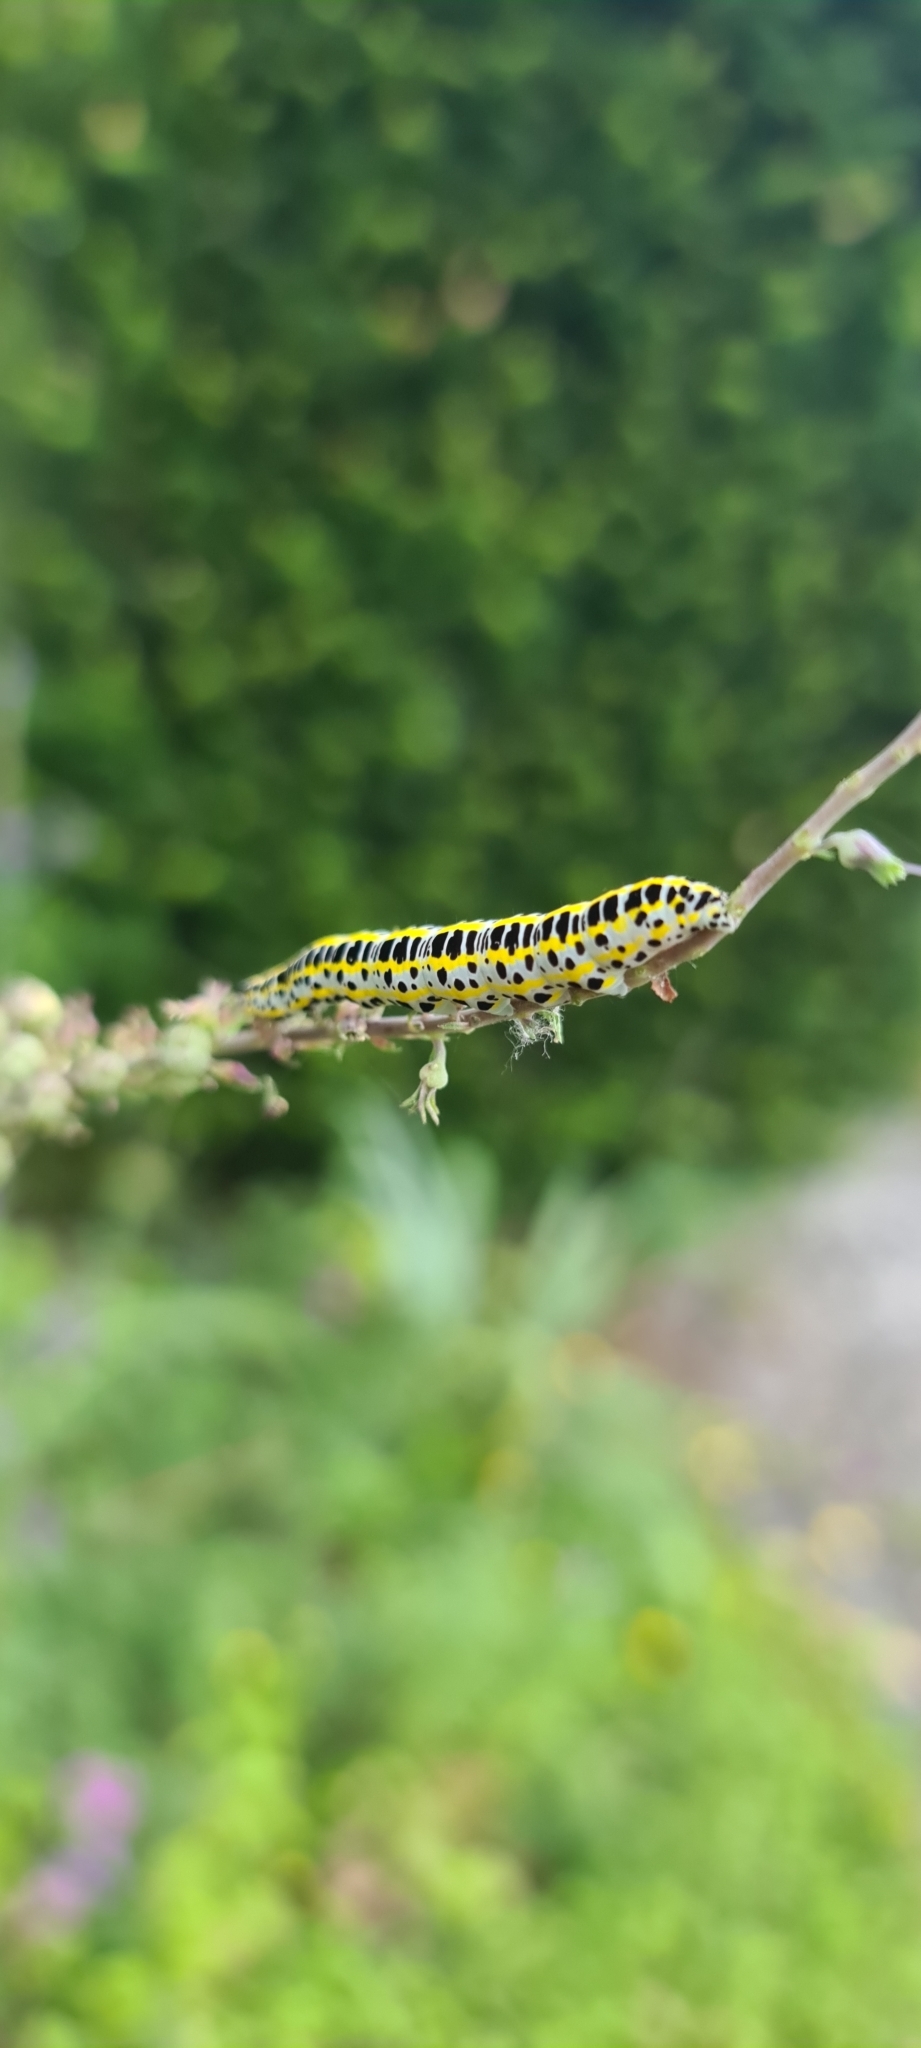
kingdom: Animalia
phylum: Arthropoda
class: Insecta
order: Lepidoptera
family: Noctuidae
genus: Calophasia
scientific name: Calophasia lunula
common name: Toadflax brocade
